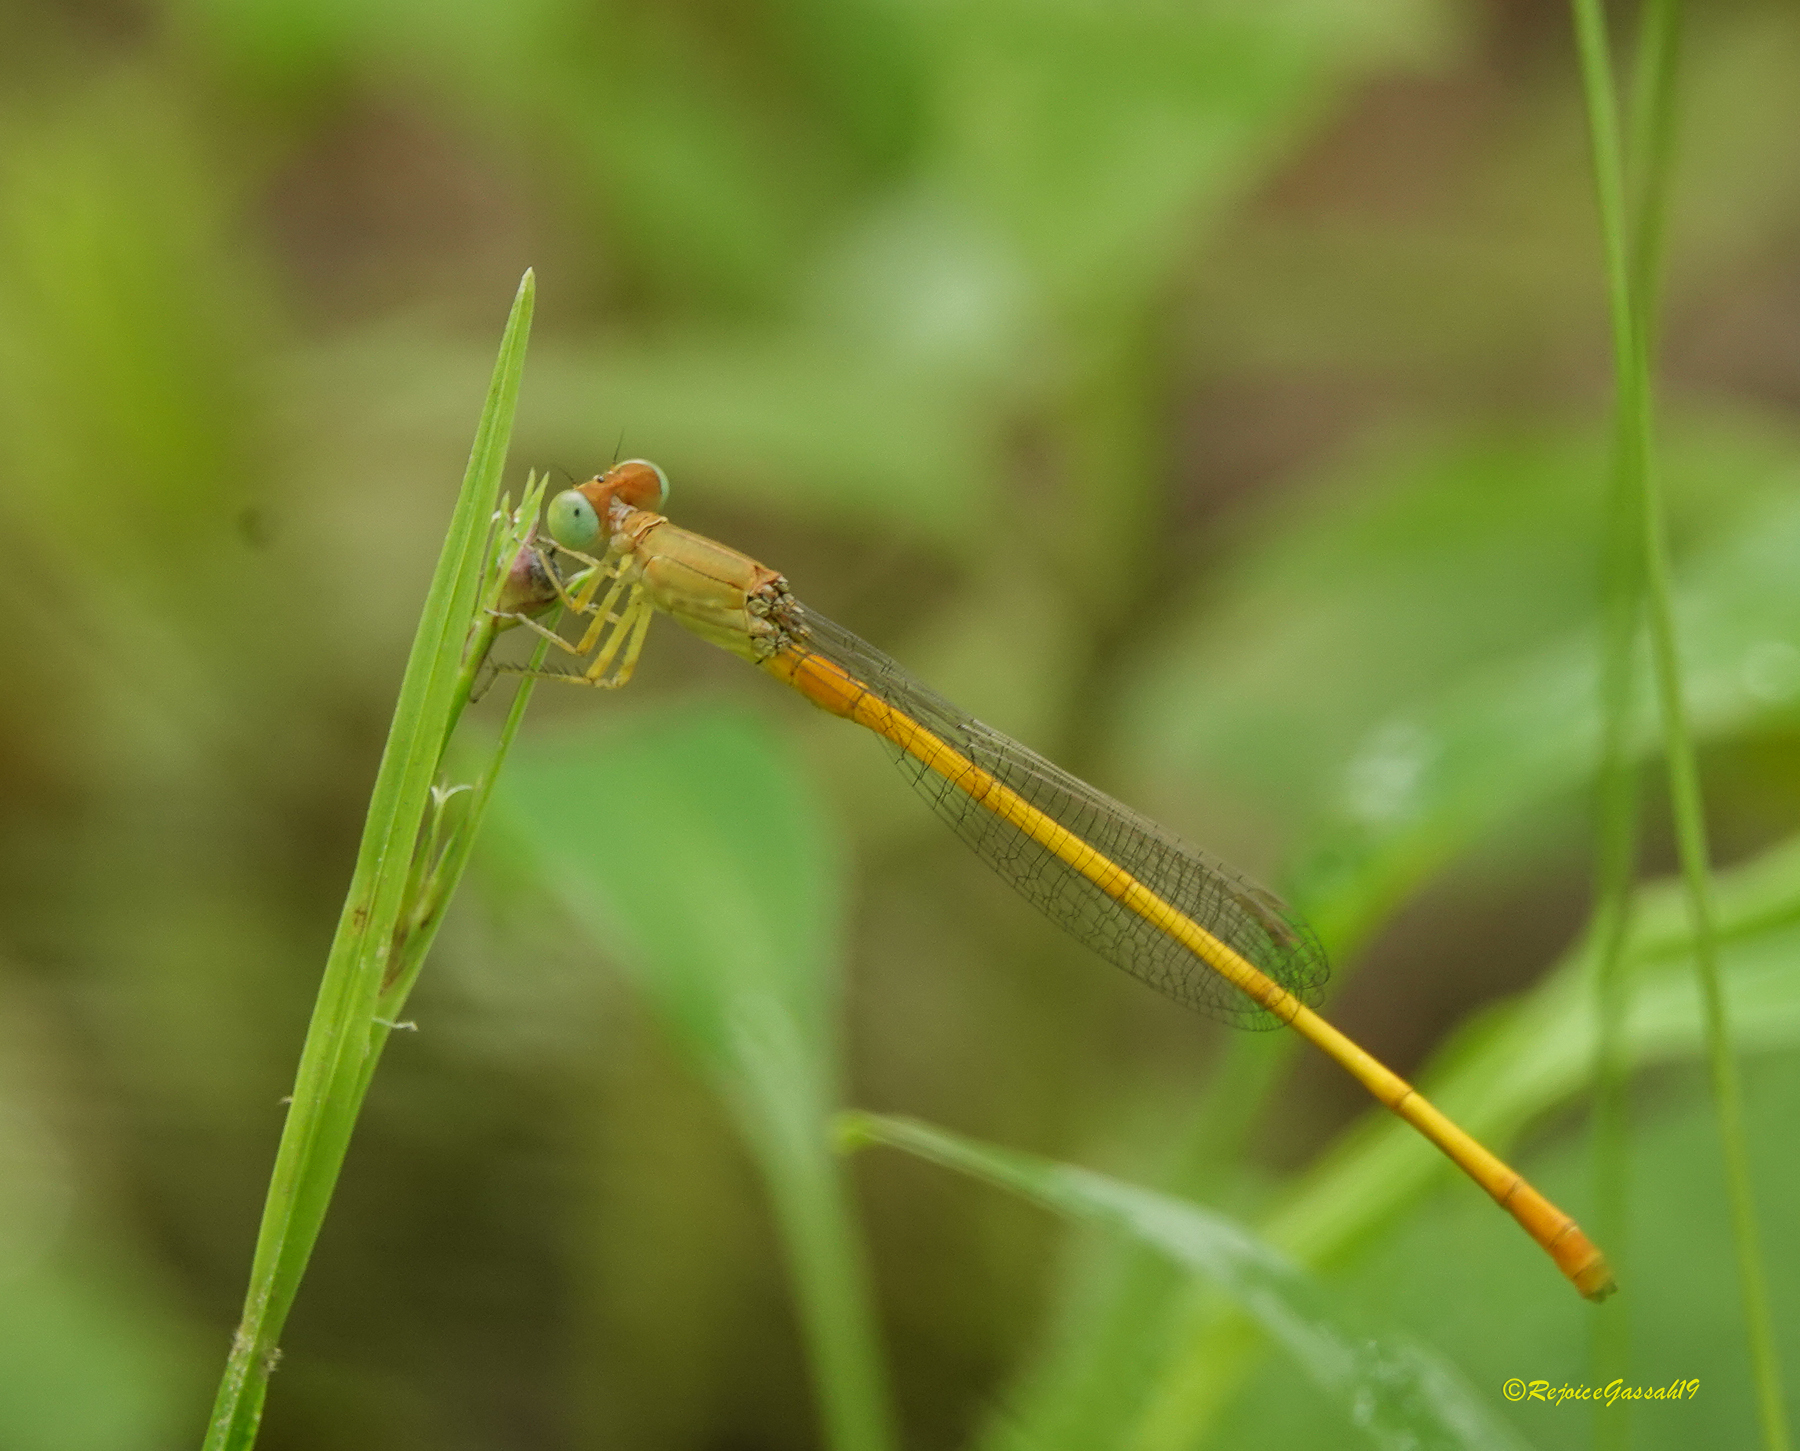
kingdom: Animalia
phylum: Arthropoda
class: Insecta
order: Odonata
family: Coenagrionidae
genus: Ceriagrion
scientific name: Ceriagrion coromandelianum
